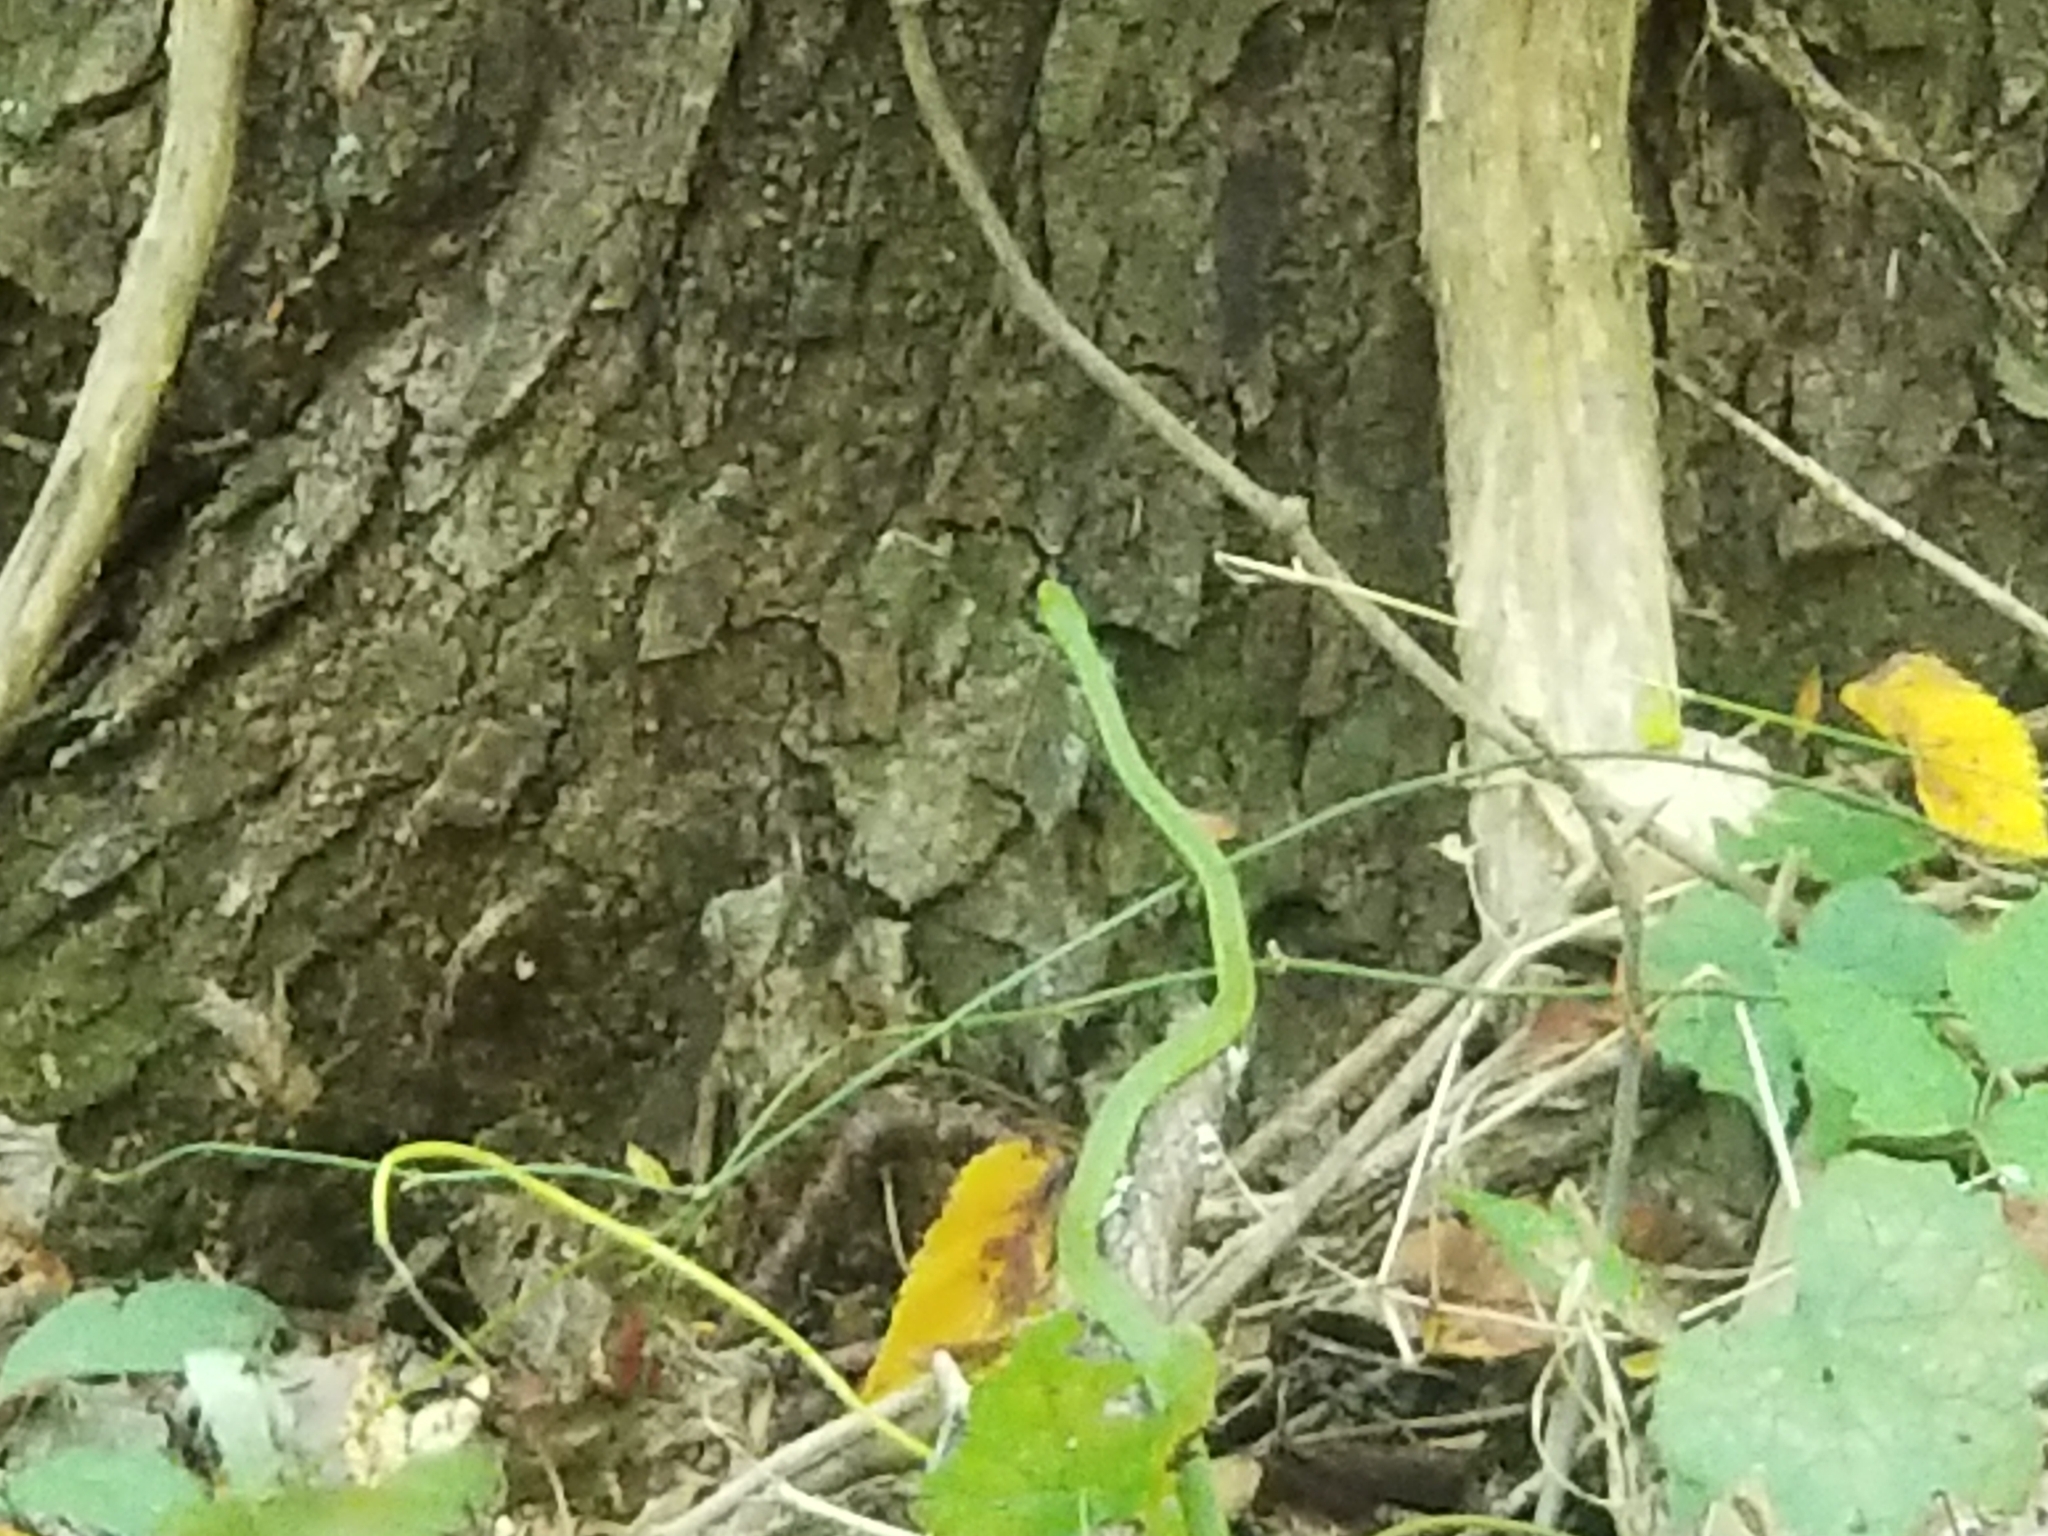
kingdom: Animalia
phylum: Chordata
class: Squamata
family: Colubridae
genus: Opheodrys
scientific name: Opheodrys aestivus
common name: Rough greensnake
